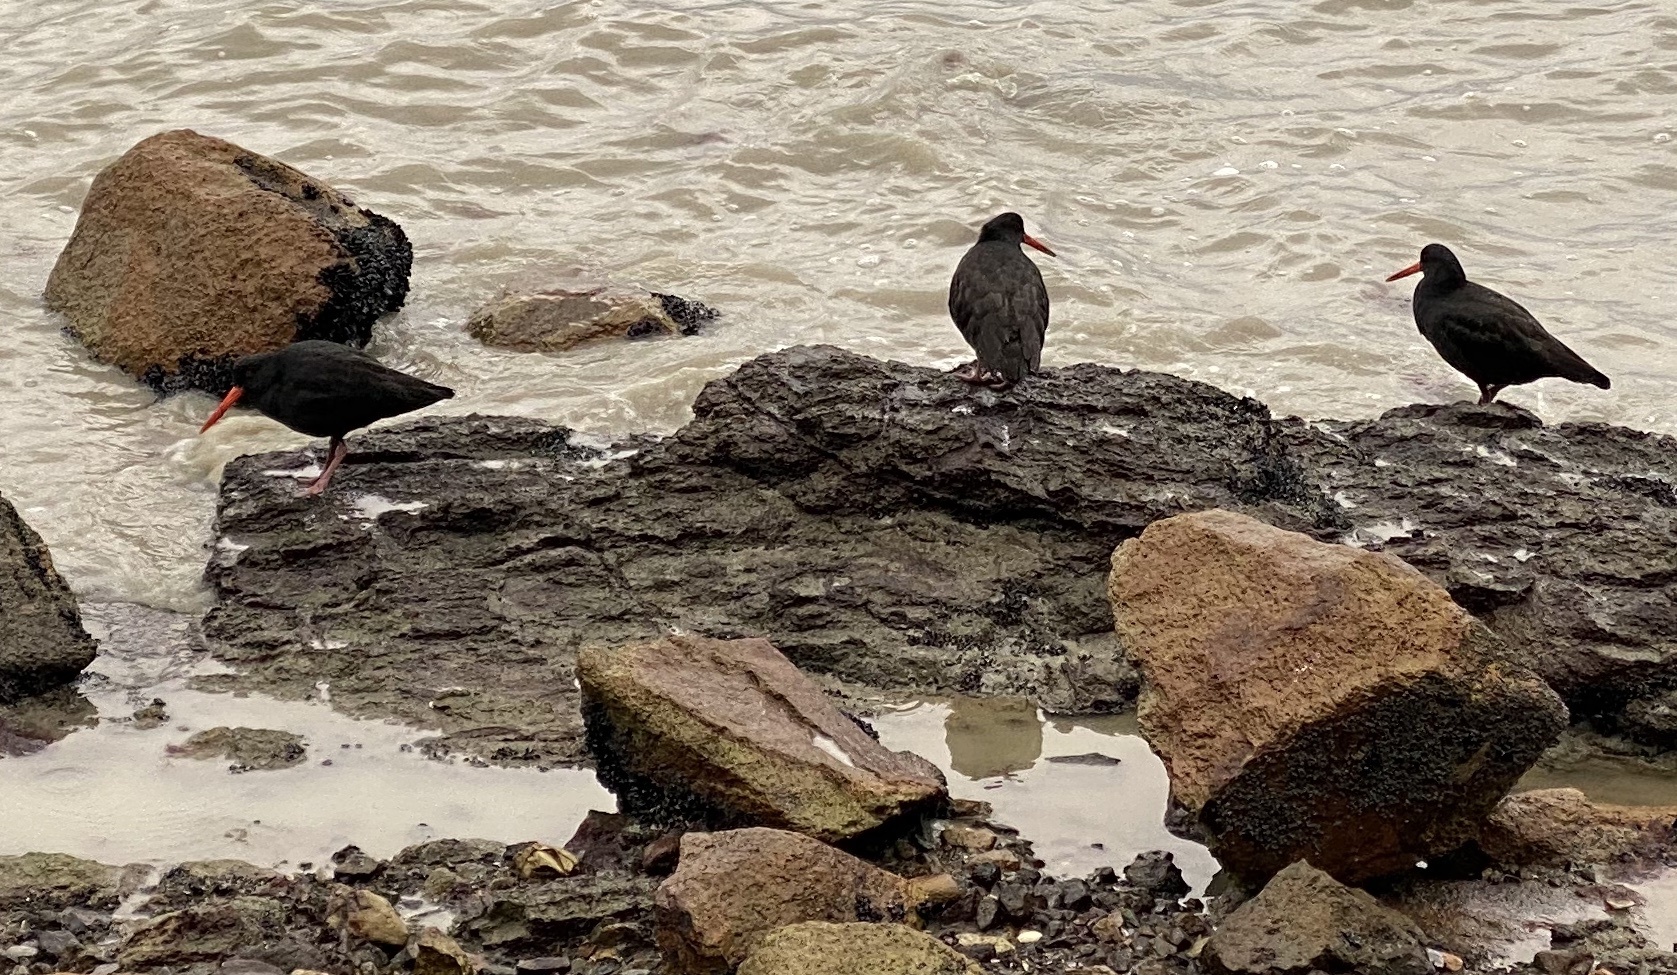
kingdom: Animalia
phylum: Chordata
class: Aves
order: Charadriiformes
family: Haematopodidae
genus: Haematopus
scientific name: Haematopus unicolor
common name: Variable oystercatcher
